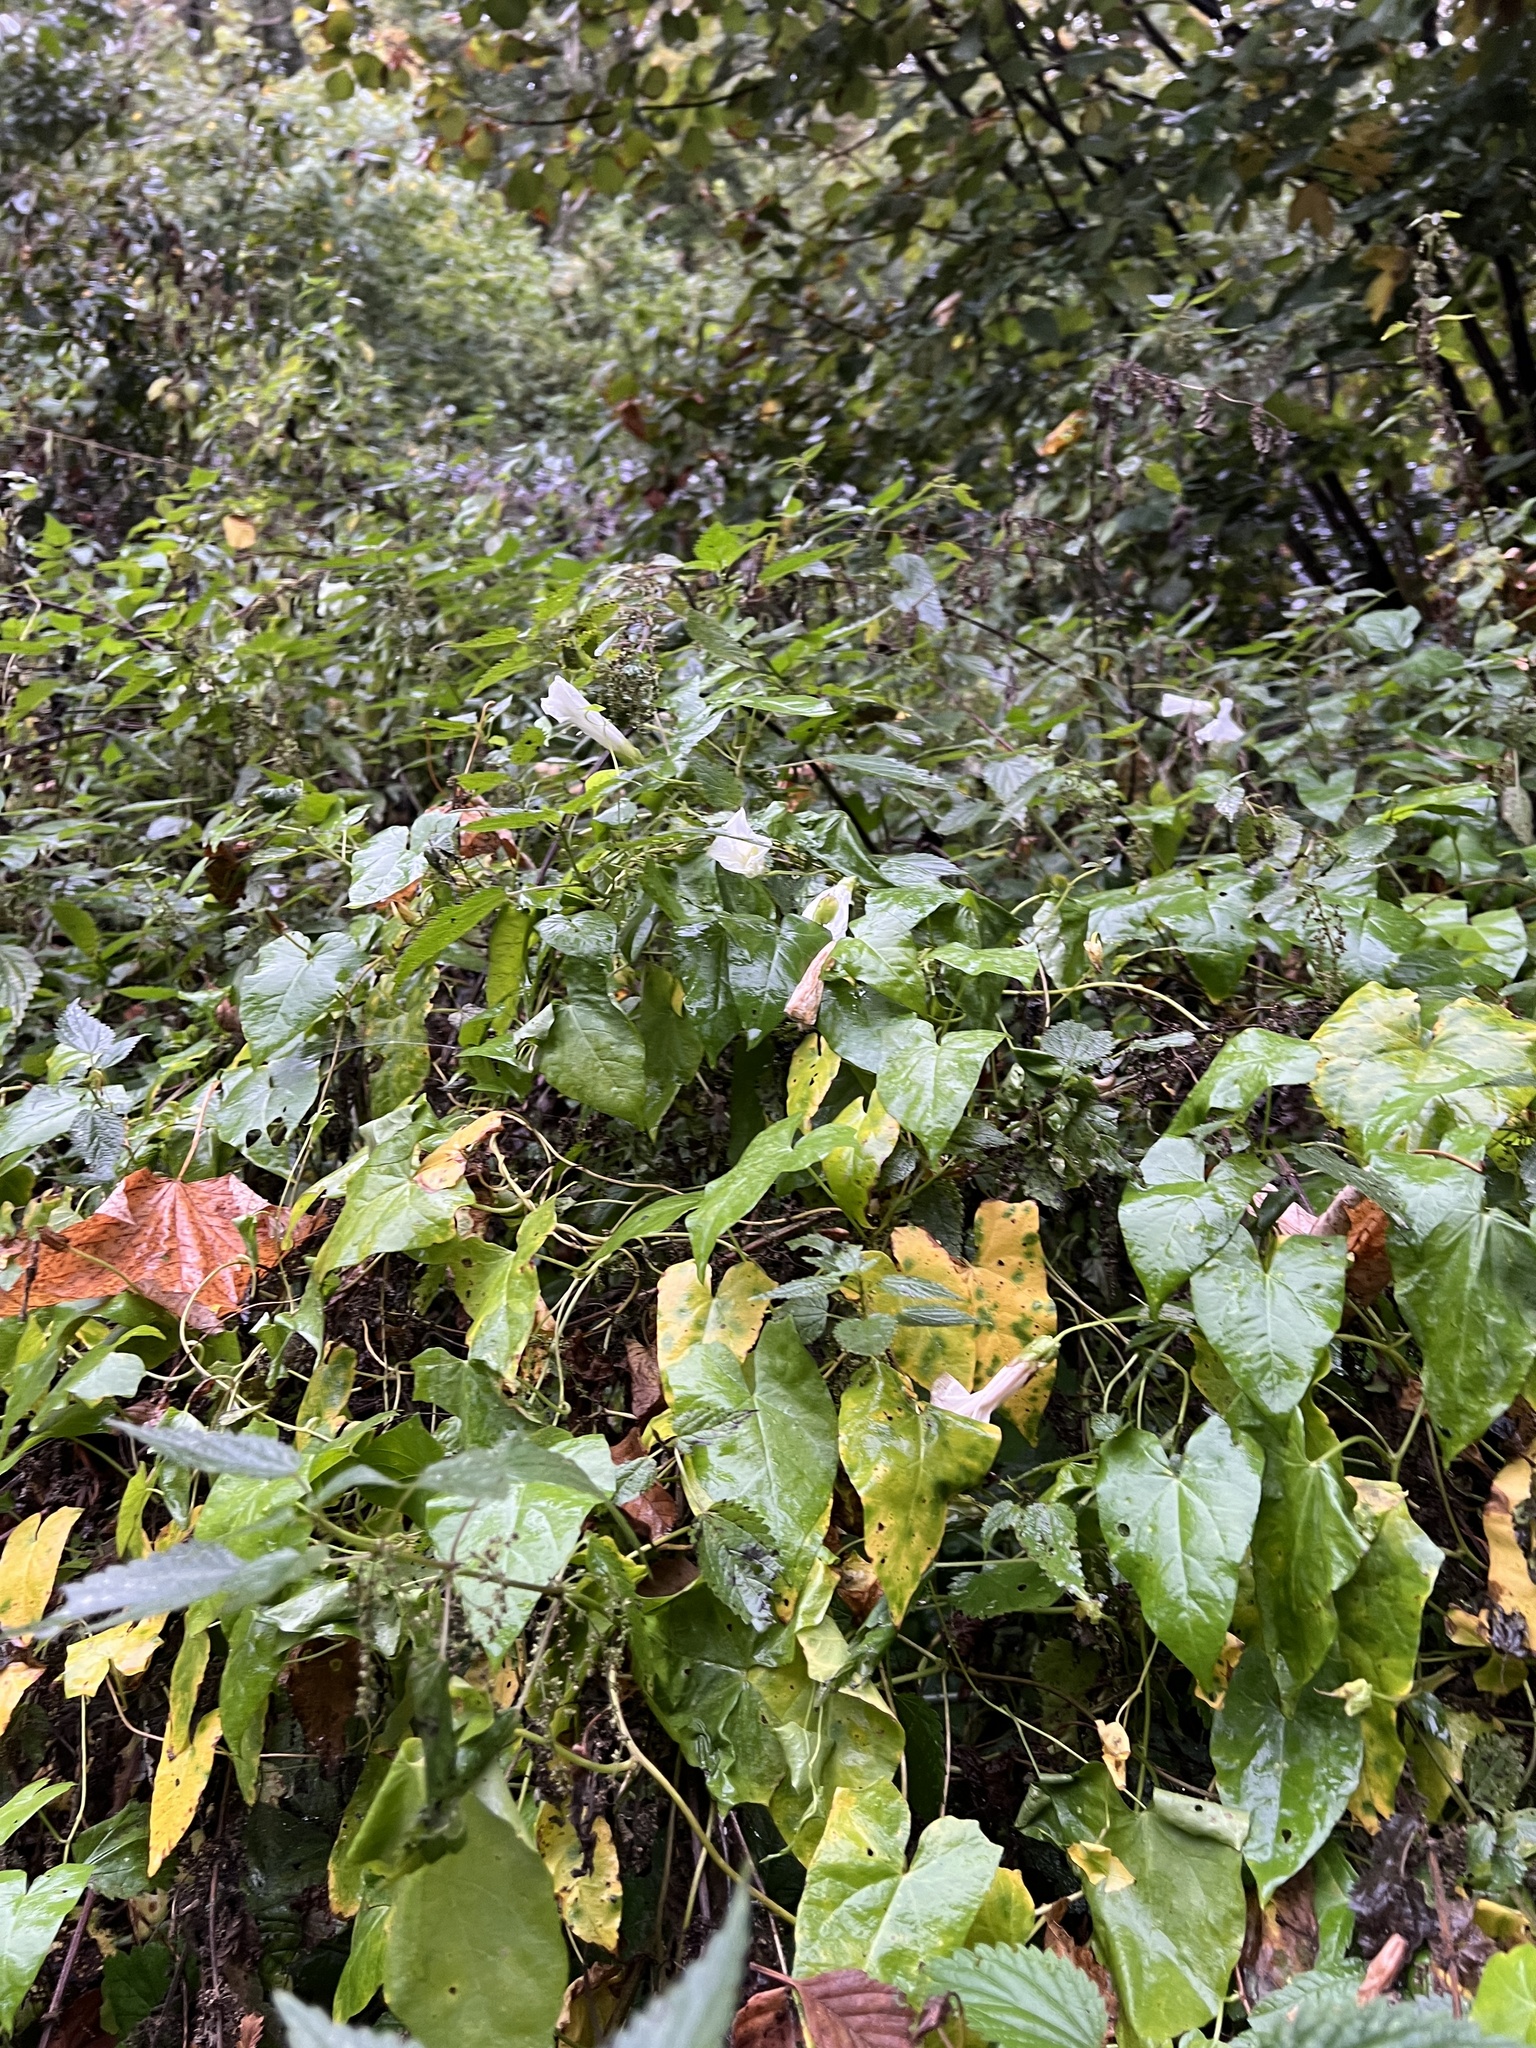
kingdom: Plantae
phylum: Tracheophyta
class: Magnoliopsida
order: Solanales
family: Convolvulaceae
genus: Calystegia
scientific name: Calystegia sepium
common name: Hedge bindweed
